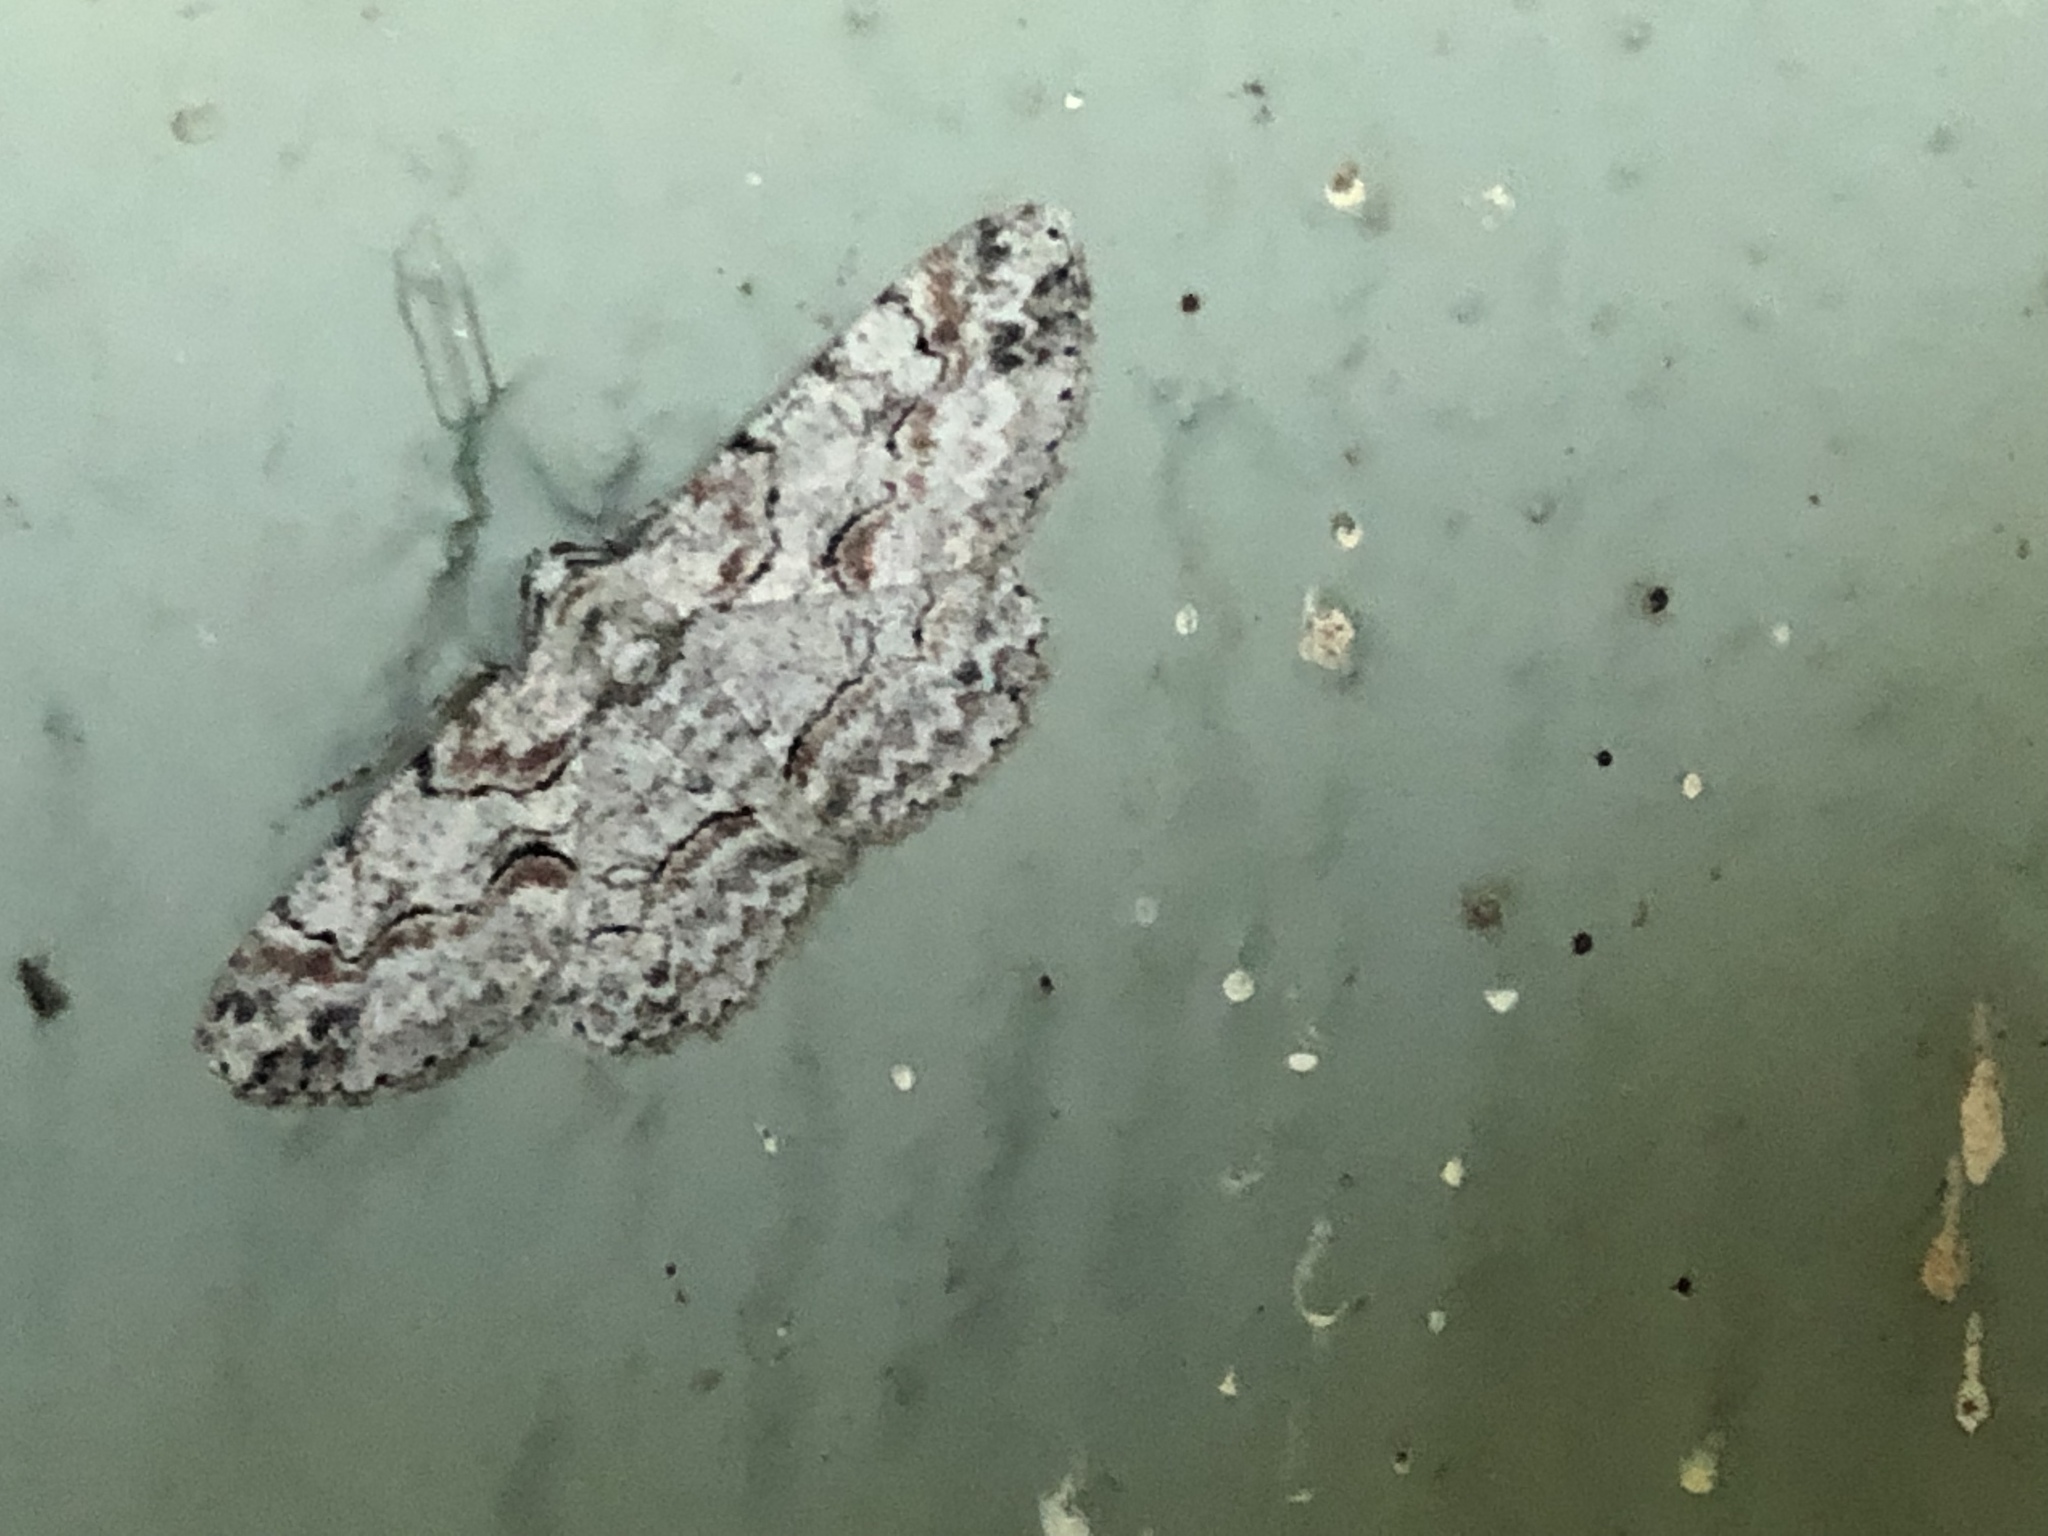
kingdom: Animalia
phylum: Arthropoda
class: Insecta
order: Lepidoptera
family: Geometridae
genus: Iridopsis
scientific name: Iridopsis defectaria
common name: Brown-shaded gray
